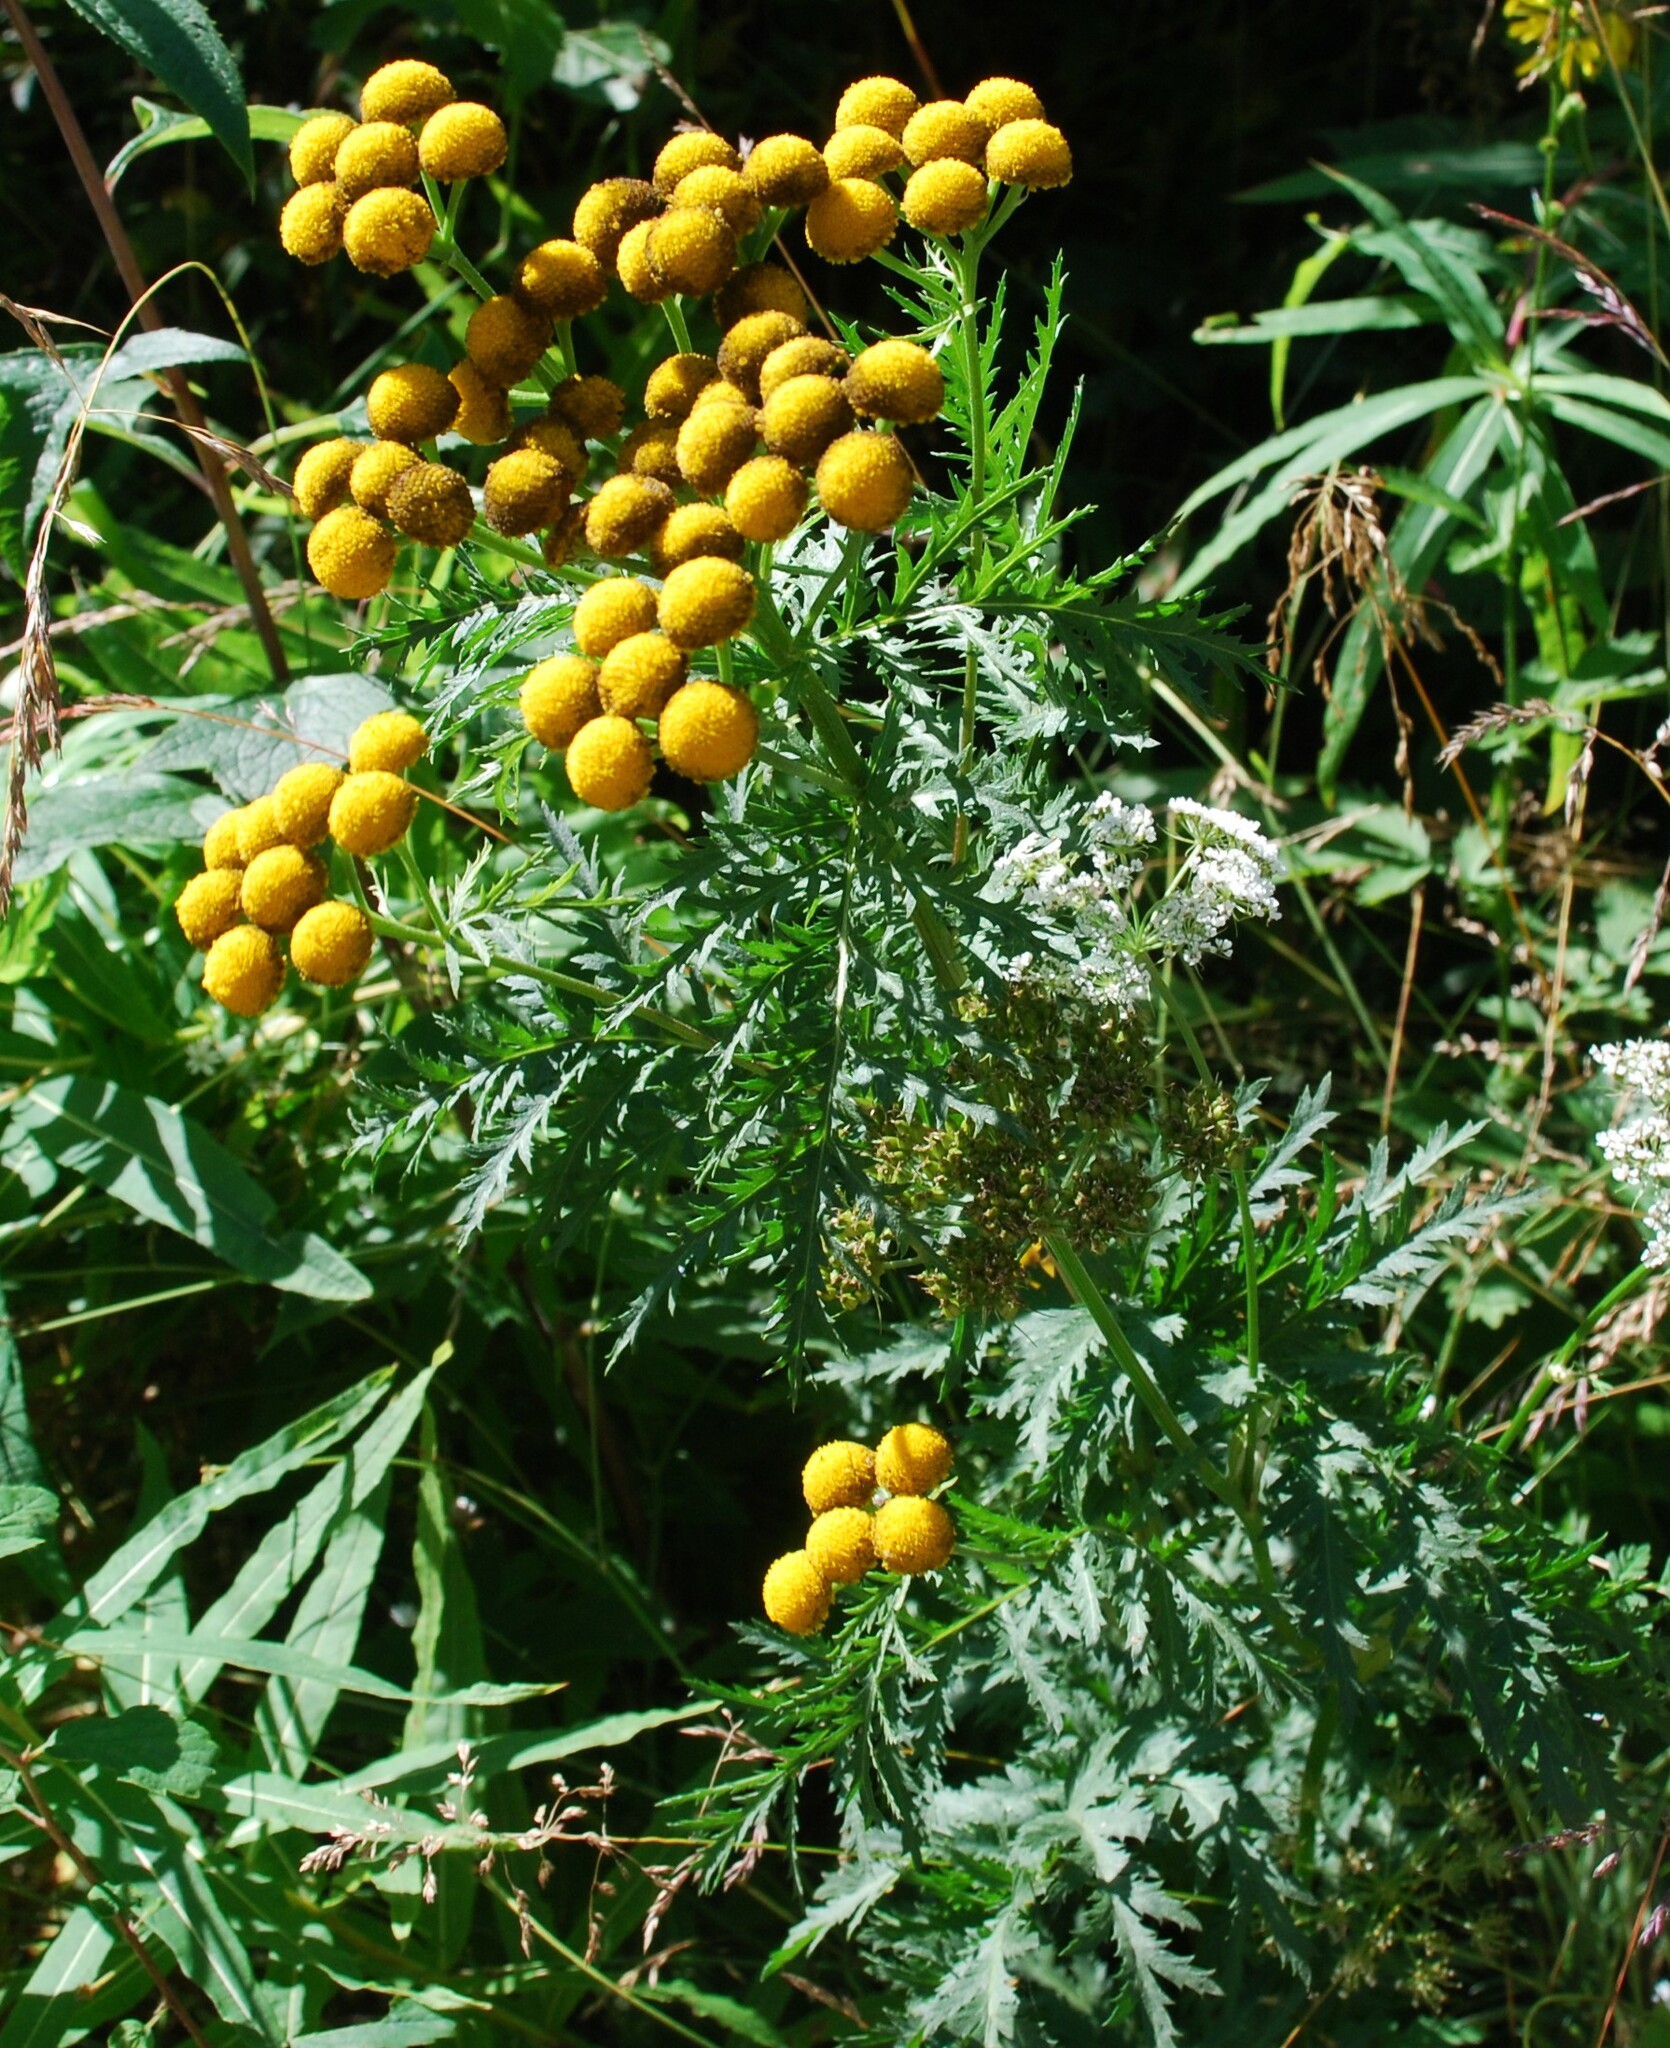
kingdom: Plantae
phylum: Tracheophyta
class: Magnoliopsida
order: Asterales
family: Asteraceae
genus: Tanacetum
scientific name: Tanacetum vulgare
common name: Common tansy
